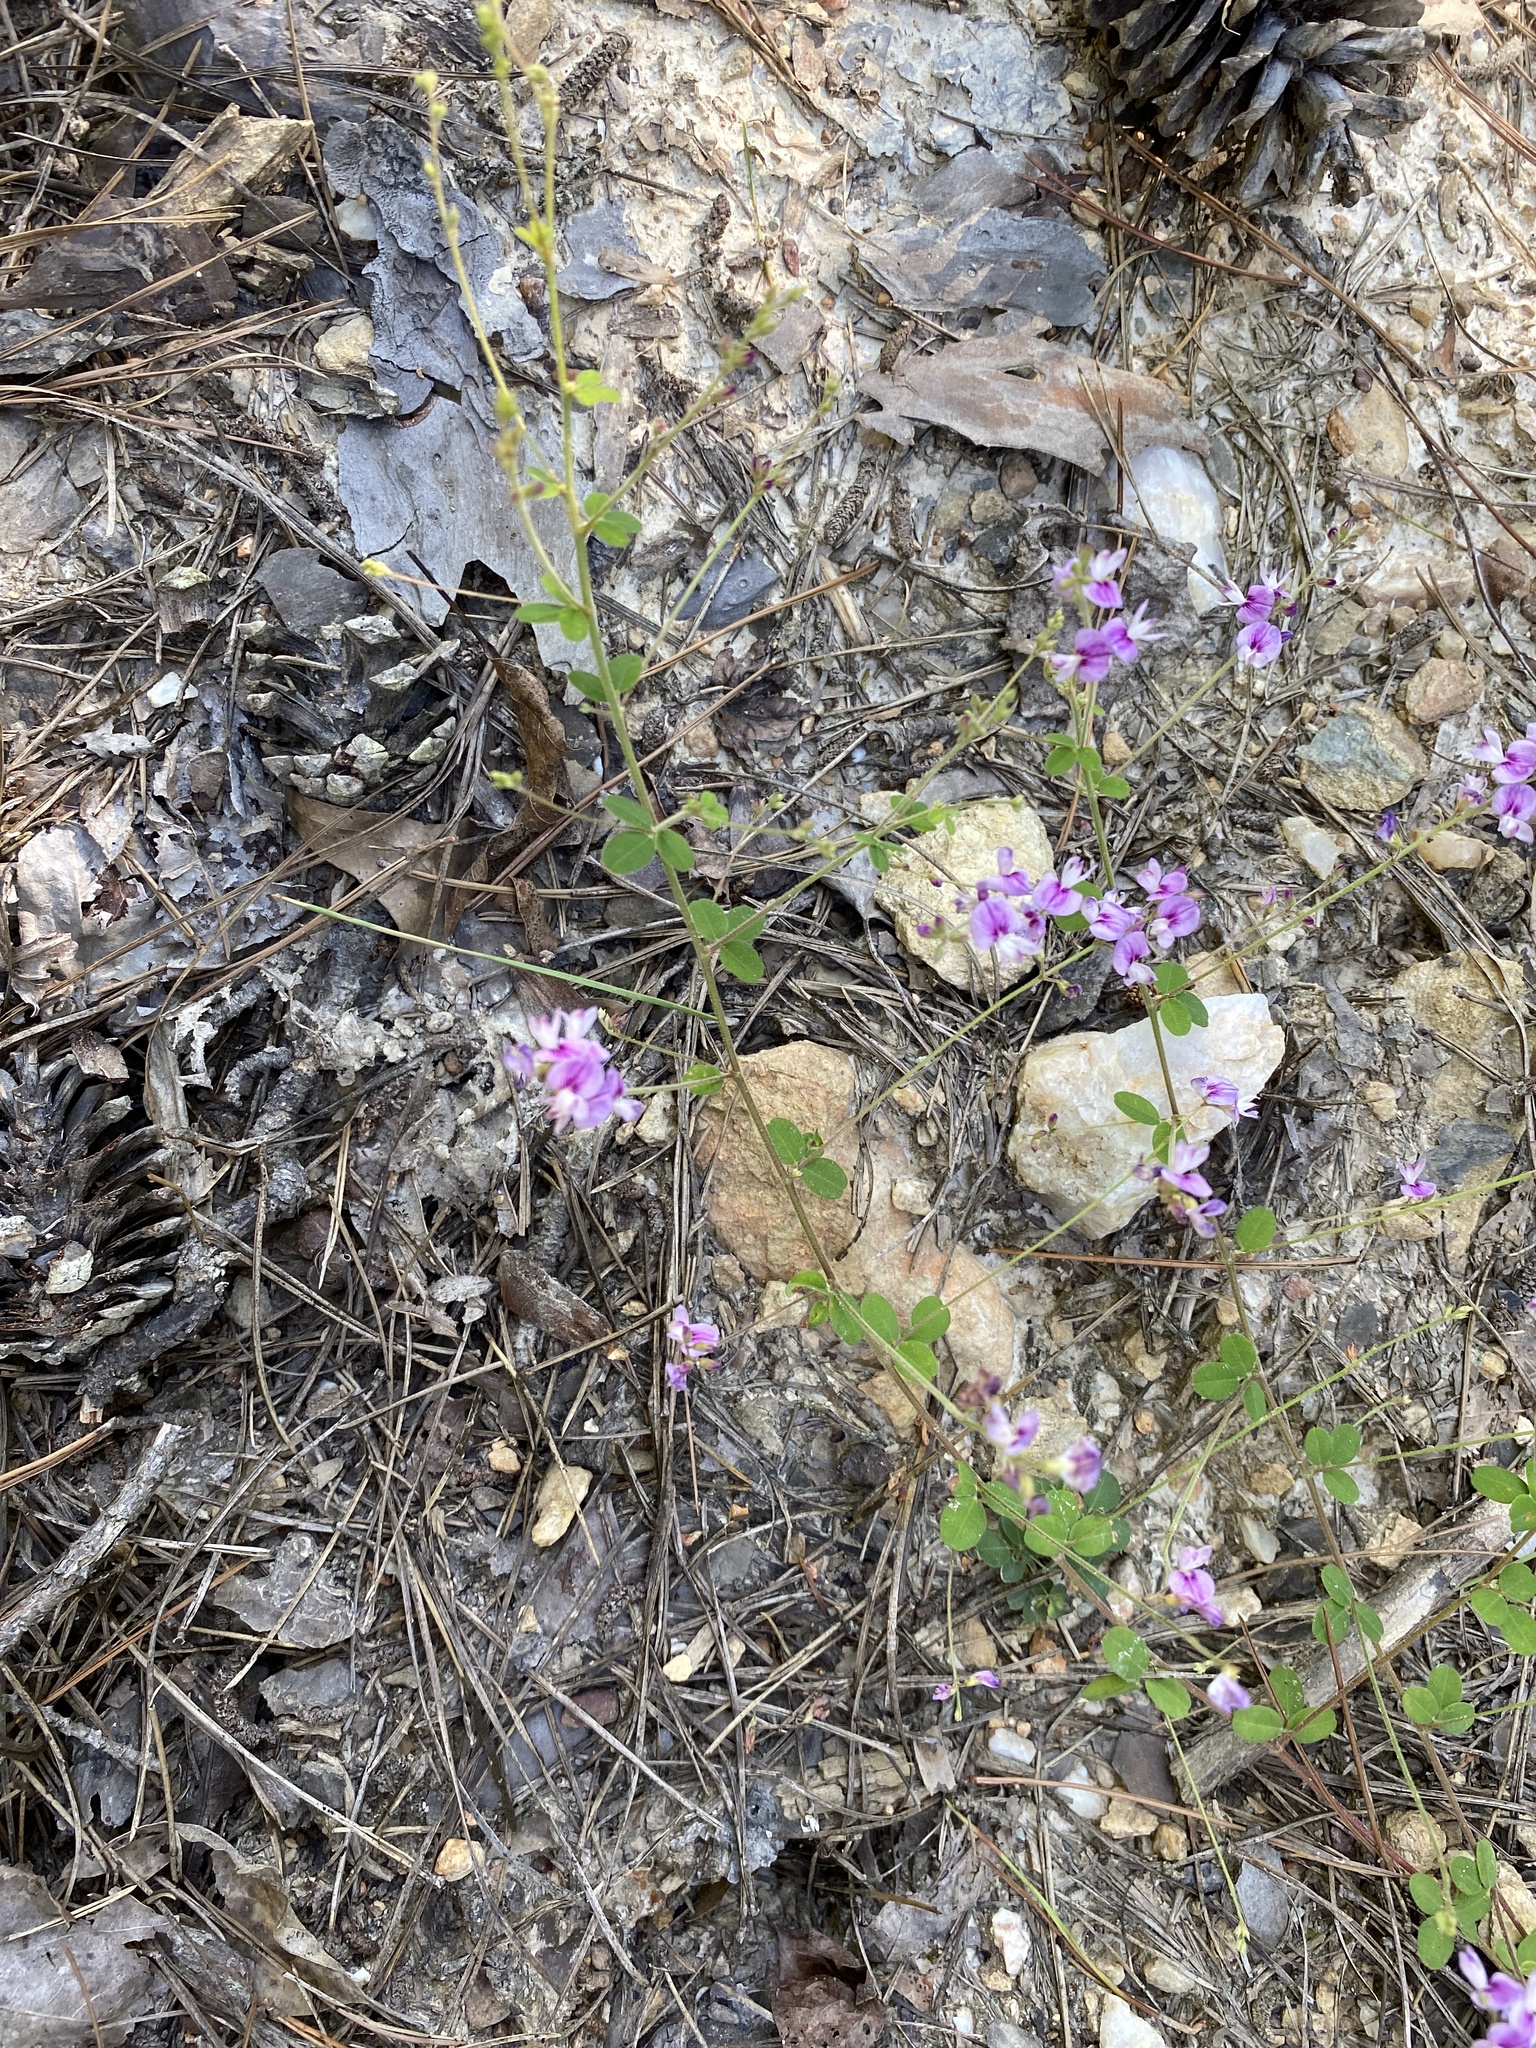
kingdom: Plantae
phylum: Tracheophyta
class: Magnoliopsida
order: Fabales
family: Fabaceae
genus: Lespedeza
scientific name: Lespedeza procumbens
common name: Downy trailing bush-clover
